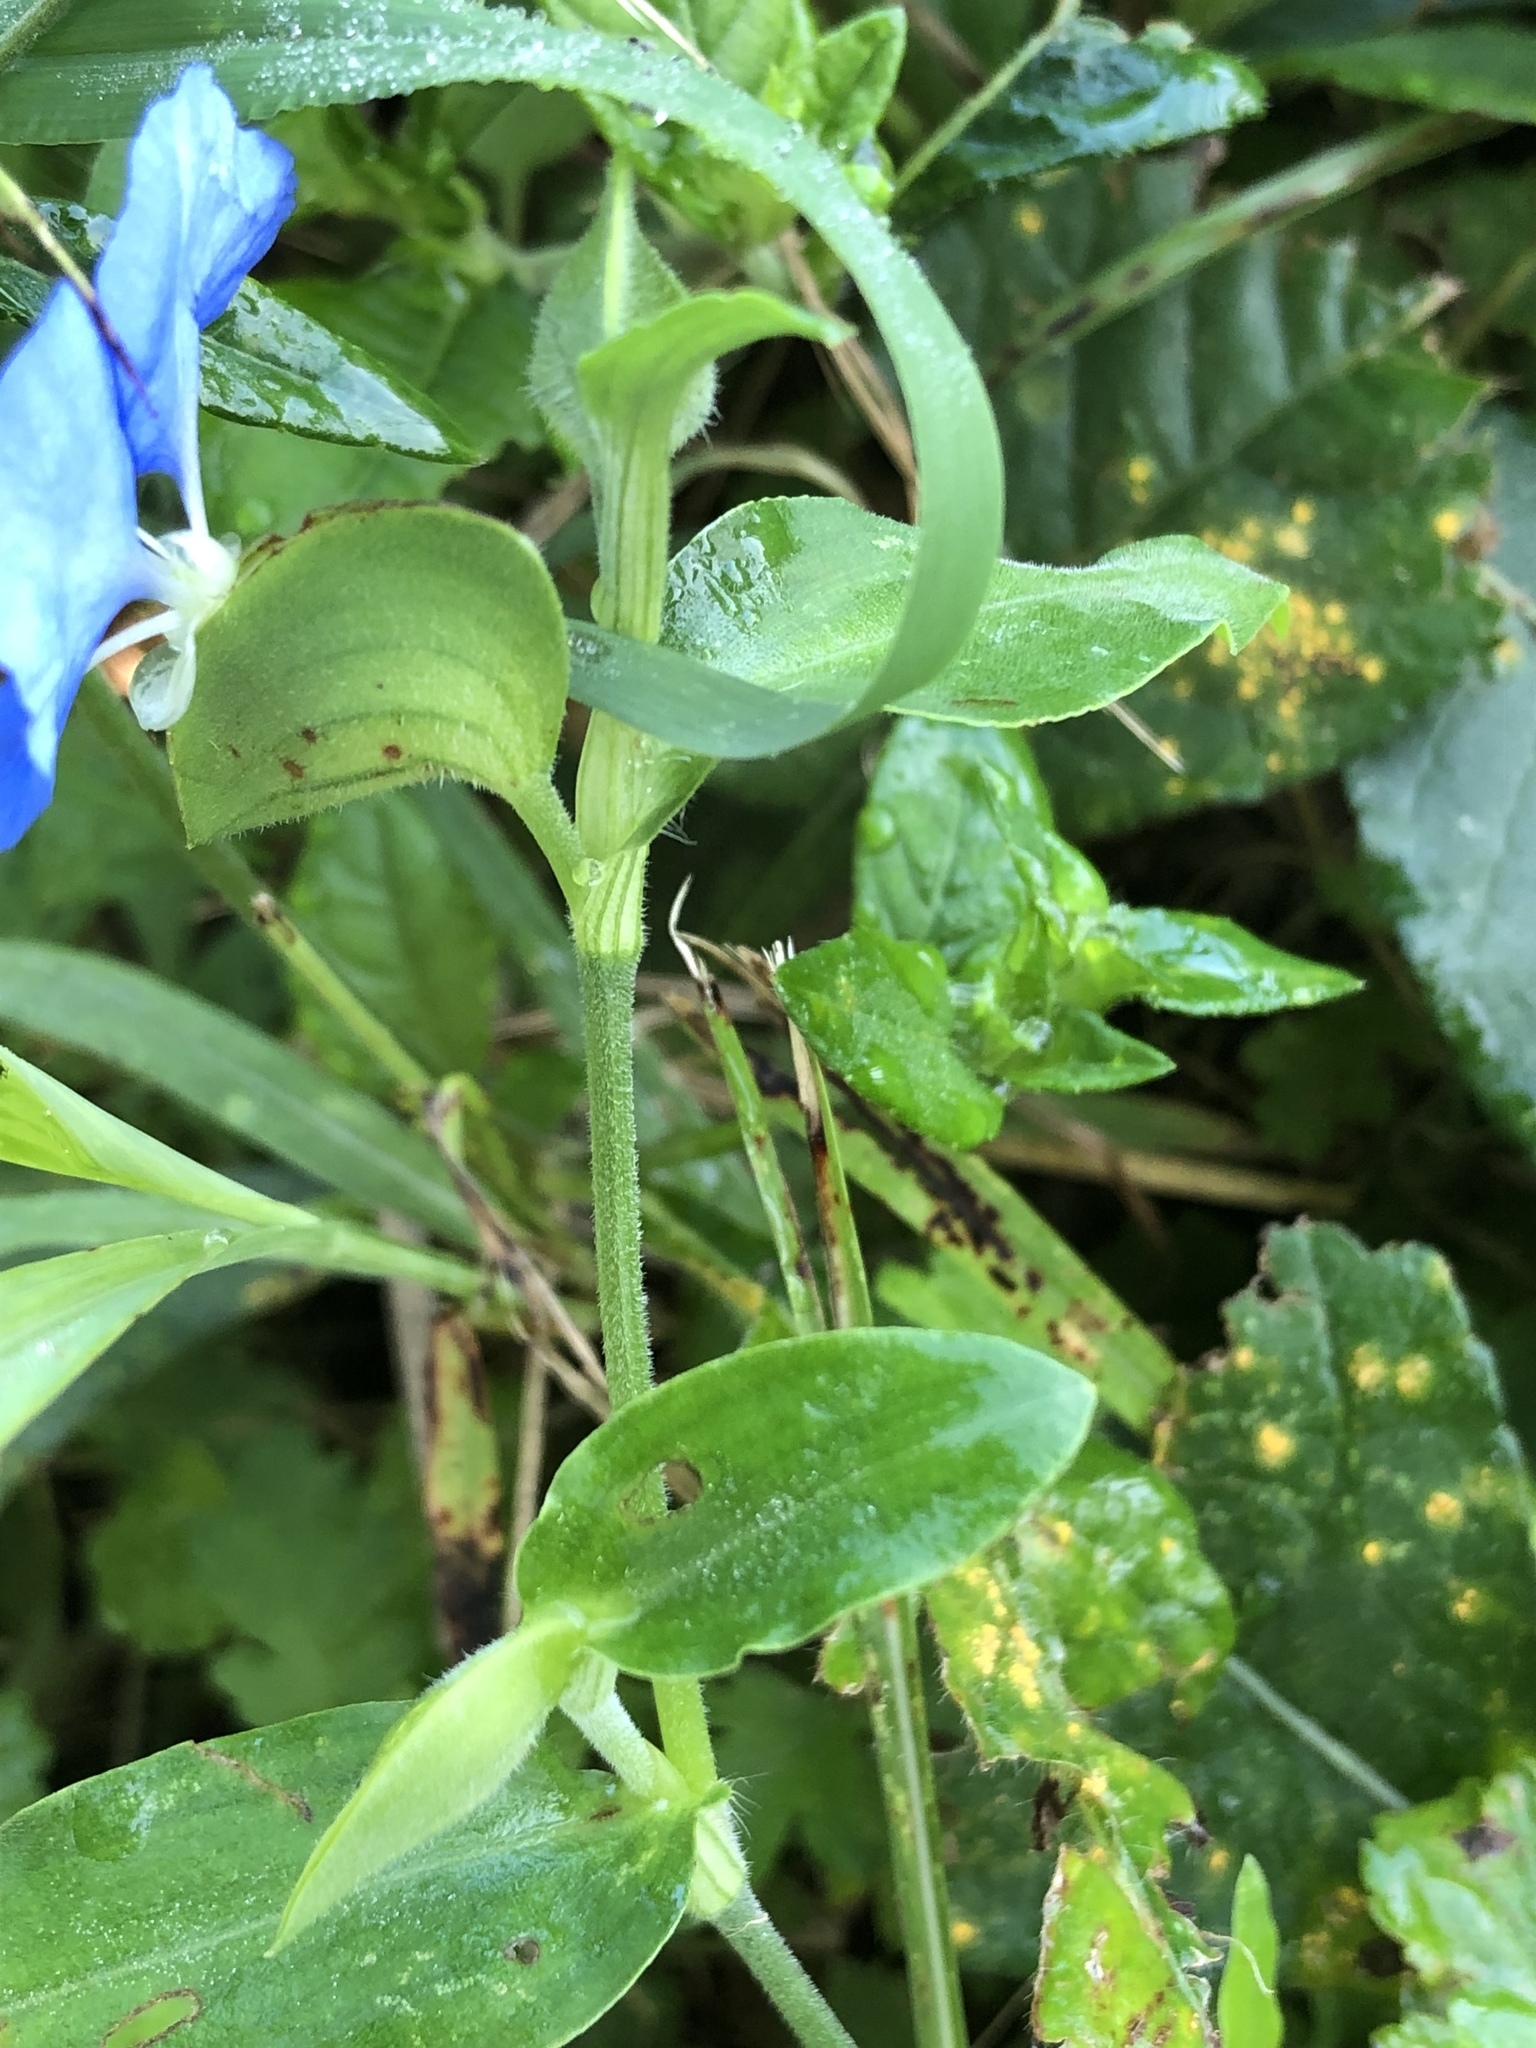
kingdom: Plantae
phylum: Tracheophyta
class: Liliopsida
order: Commelinales
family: Commelinaceae
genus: Commelina
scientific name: Commelina erecta
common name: Blousel blommetjie
